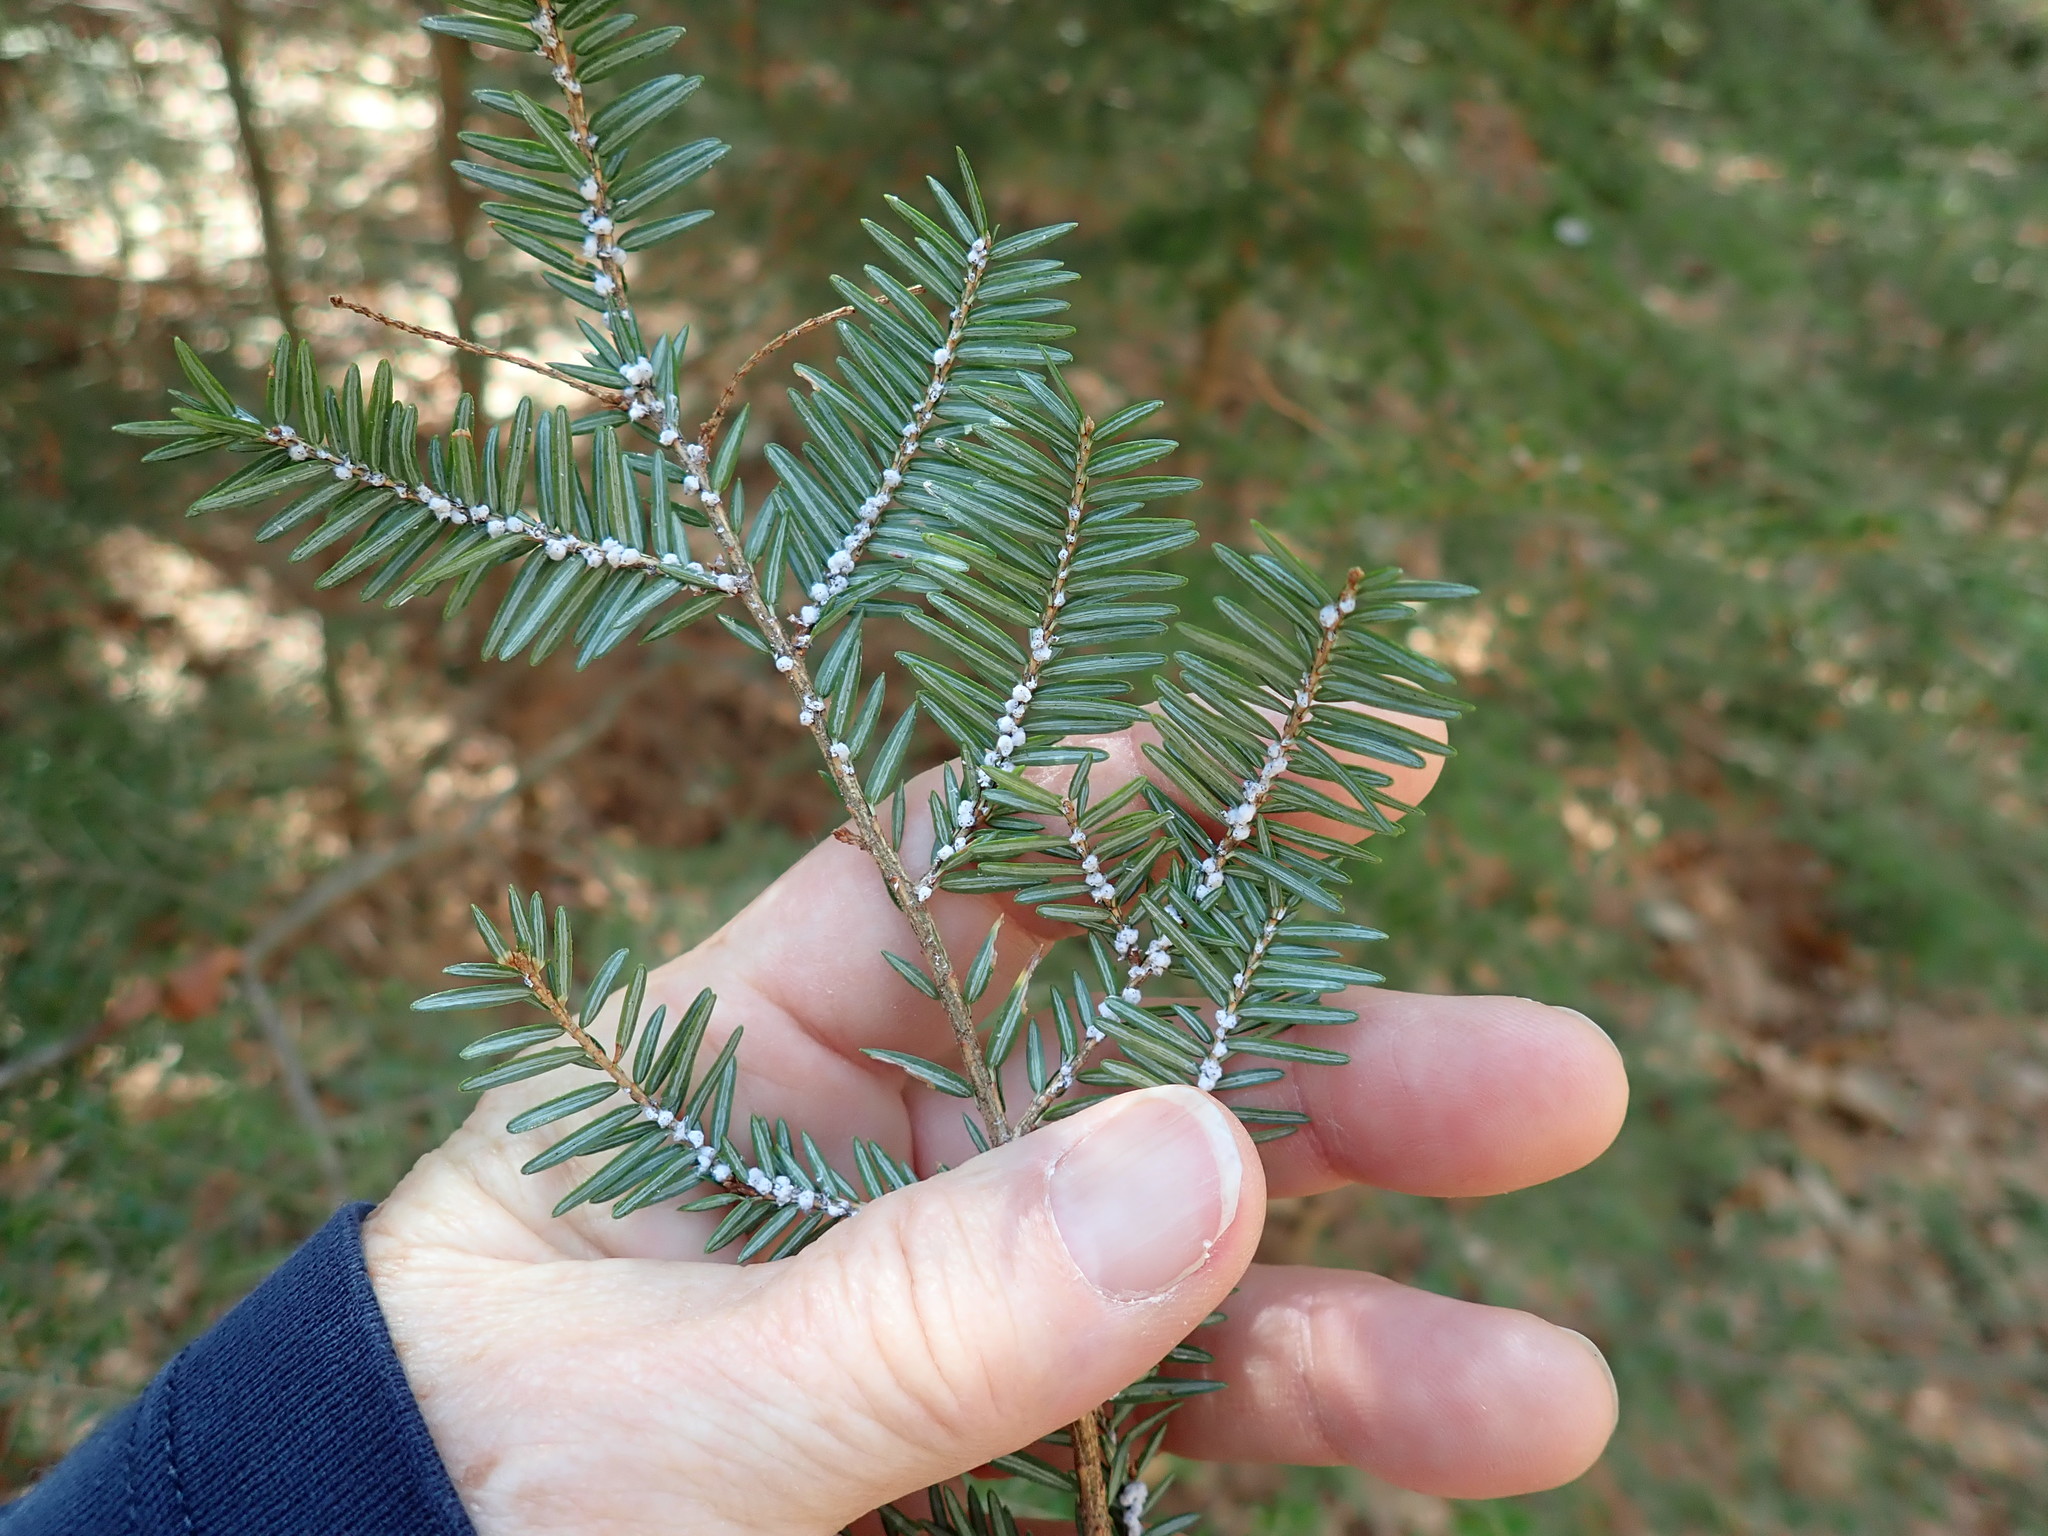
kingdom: Animalia
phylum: Arthropoda
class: Insecta
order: Hemiptera
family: Adelgidae
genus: Adelges
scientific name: Adelges tsugae
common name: Hemlock woolly adelgid
